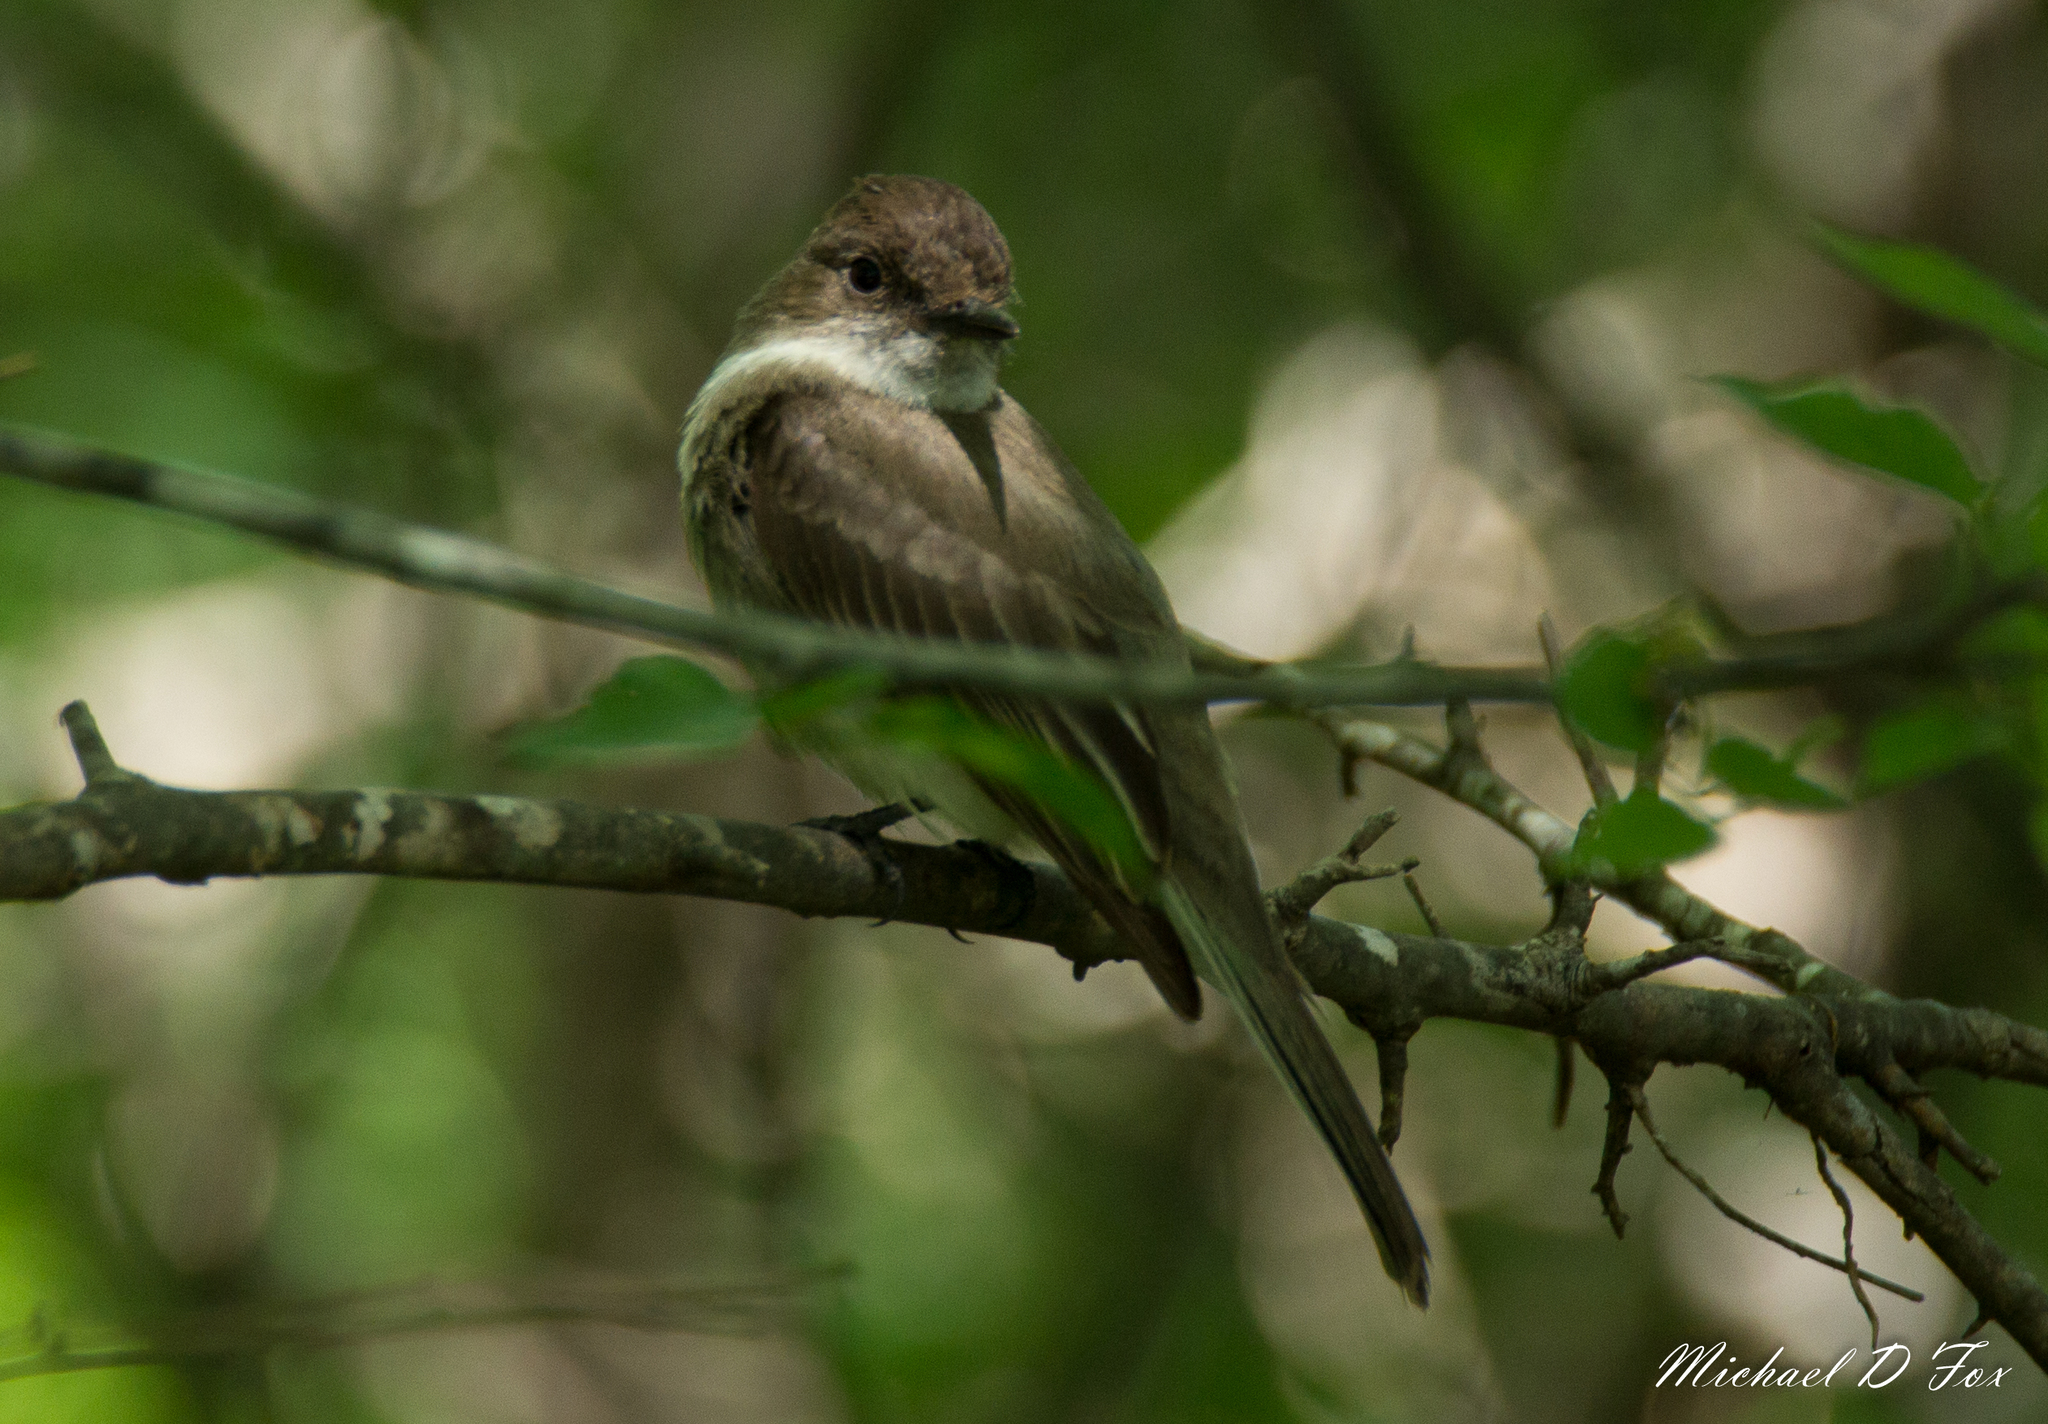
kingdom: Animalia
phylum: Chordata
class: Aves
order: Passeriformes
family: Tyrannidae
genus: Sayornis
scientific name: Sayornis phoebe
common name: Eastern phoebe
